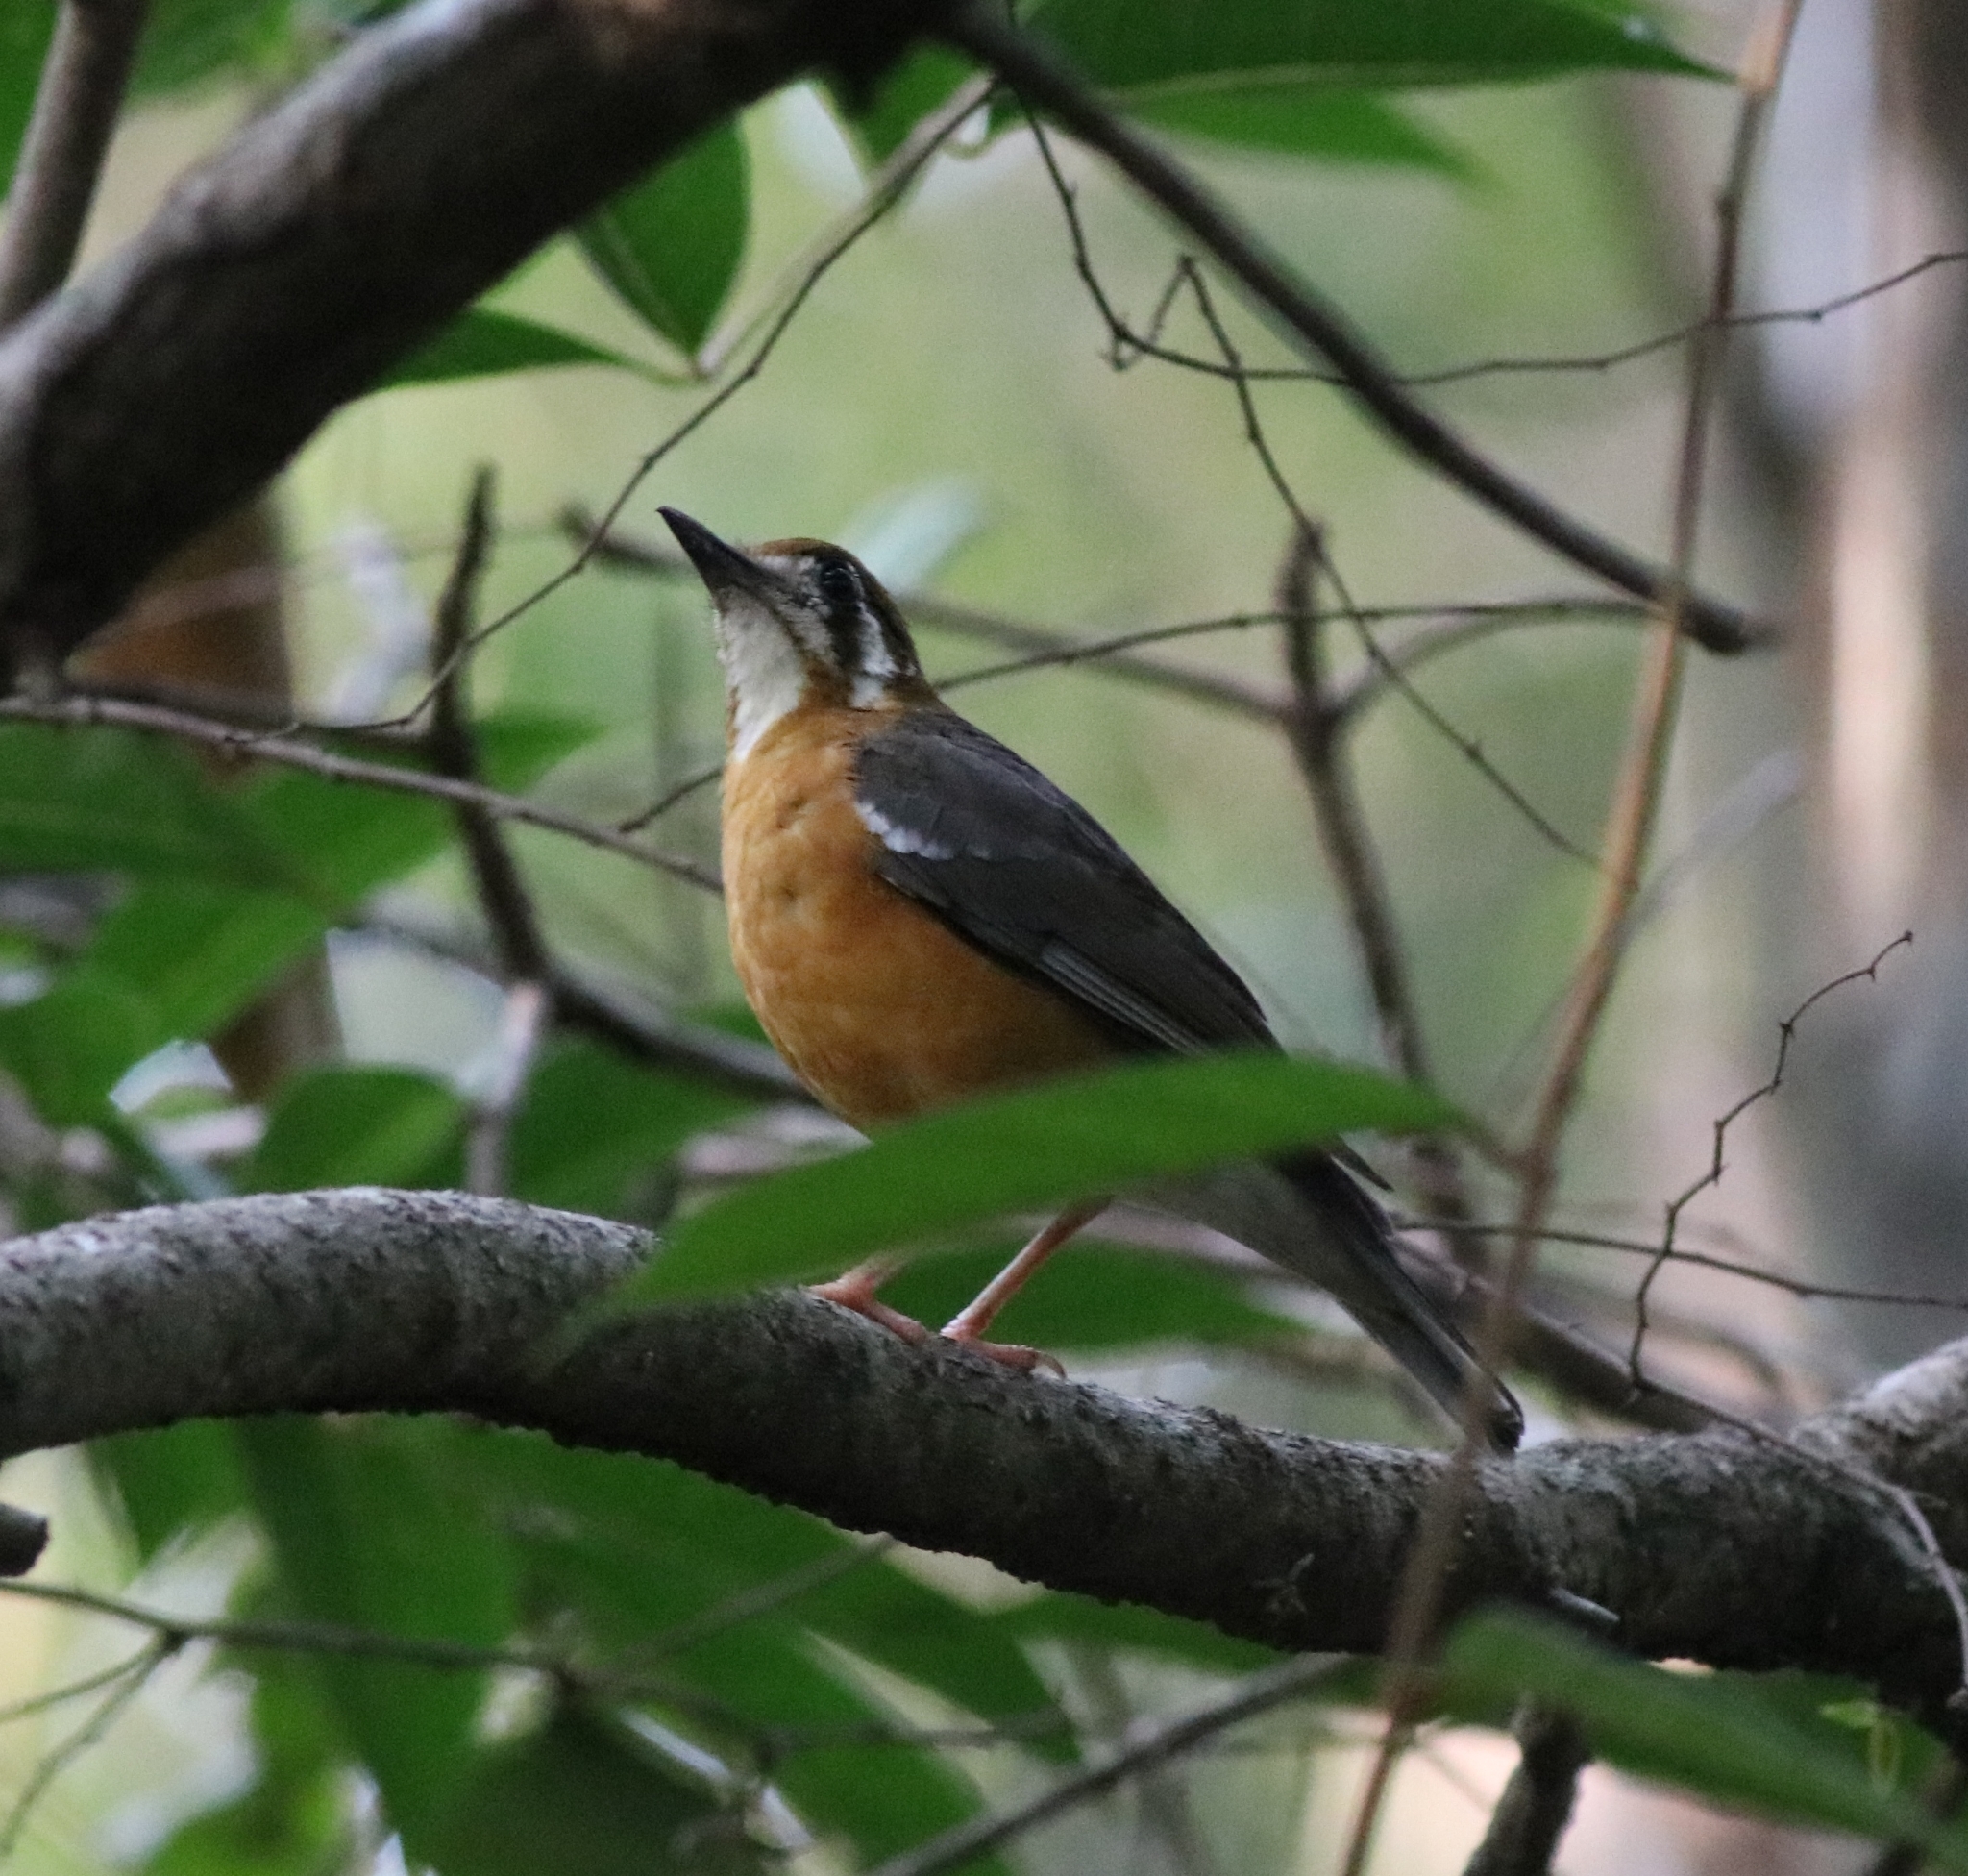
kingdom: Animalia
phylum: Chordata
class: Aves
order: Passeriformes
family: Turdidae
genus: Geokichla
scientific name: Geokichla citrina
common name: Orange-headed thrush
